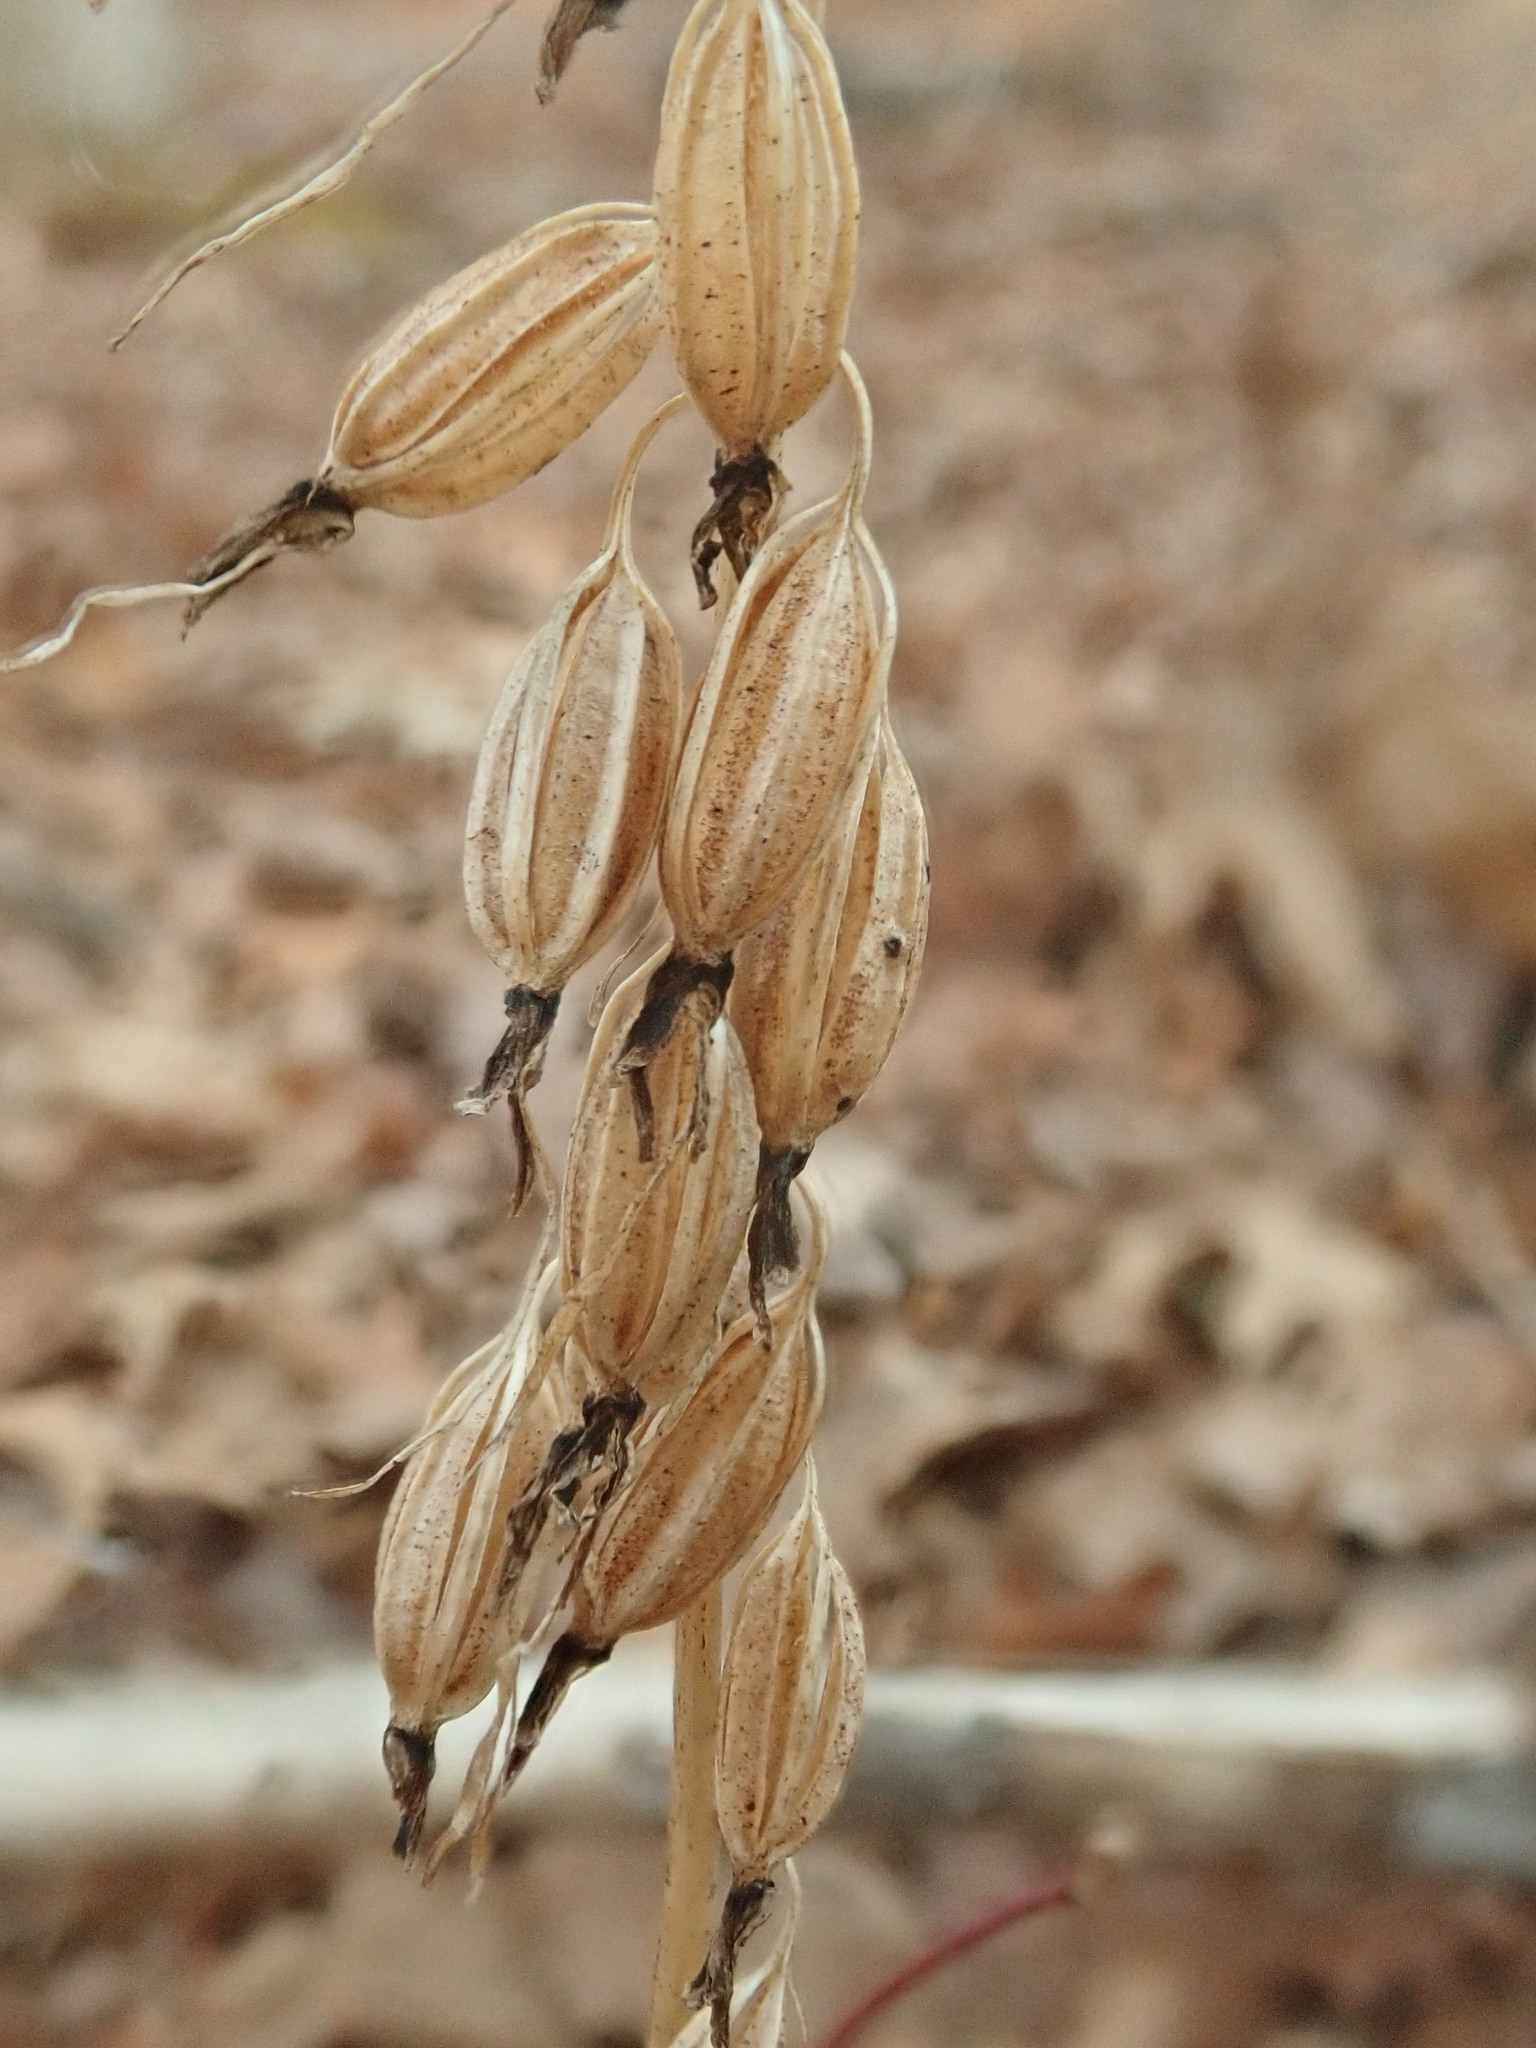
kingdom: Plantae
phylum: Tracheophyta
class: Liliopsida
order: Asparagales
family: Orchidaceae
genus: Tipularia
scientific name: Tipularia discolor
